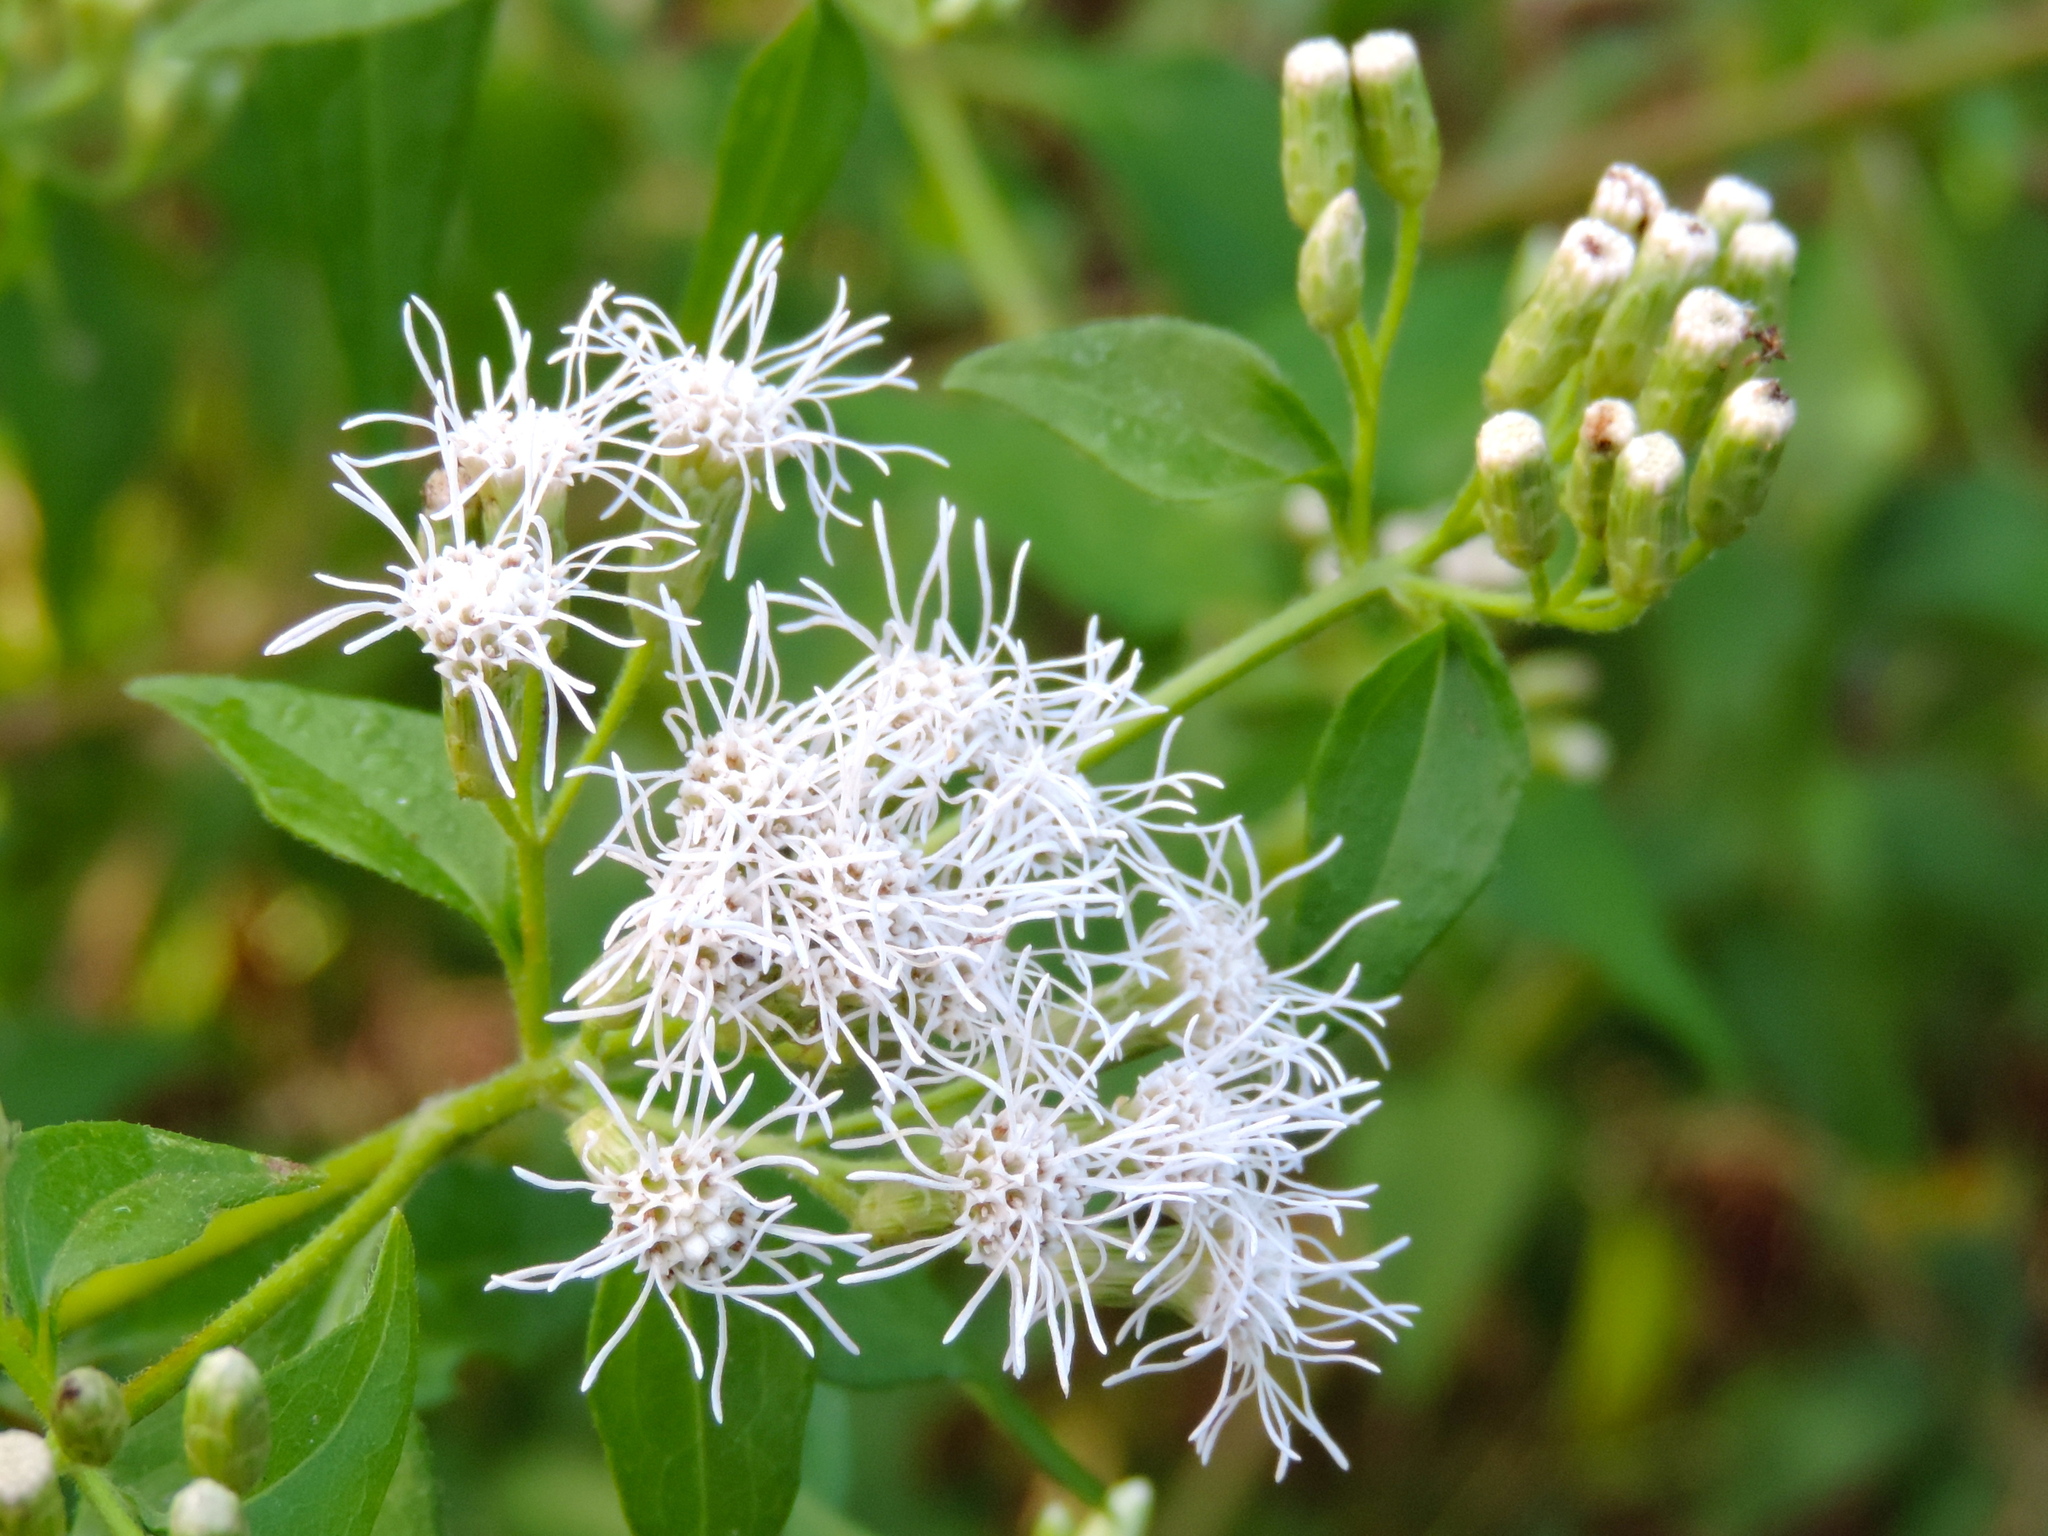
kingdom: Plantae
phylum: Tracheophyta
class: Magnoliopsida
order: Asterales
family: Asteraceae
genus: Chromolaena
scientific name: Chromolaena odorata
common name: Siamweed
